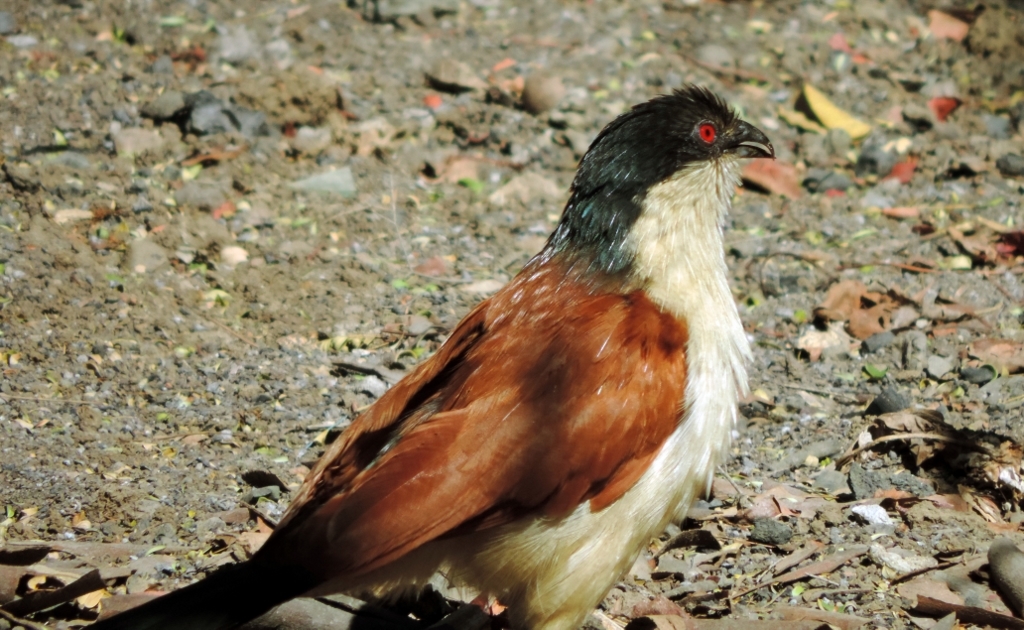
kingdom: Animalia
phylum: Chordata
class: Aves
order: Cuculiformes
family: Cuculidae
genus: Centropus
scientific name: Centropus senegalensis
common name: Senegal coucal
